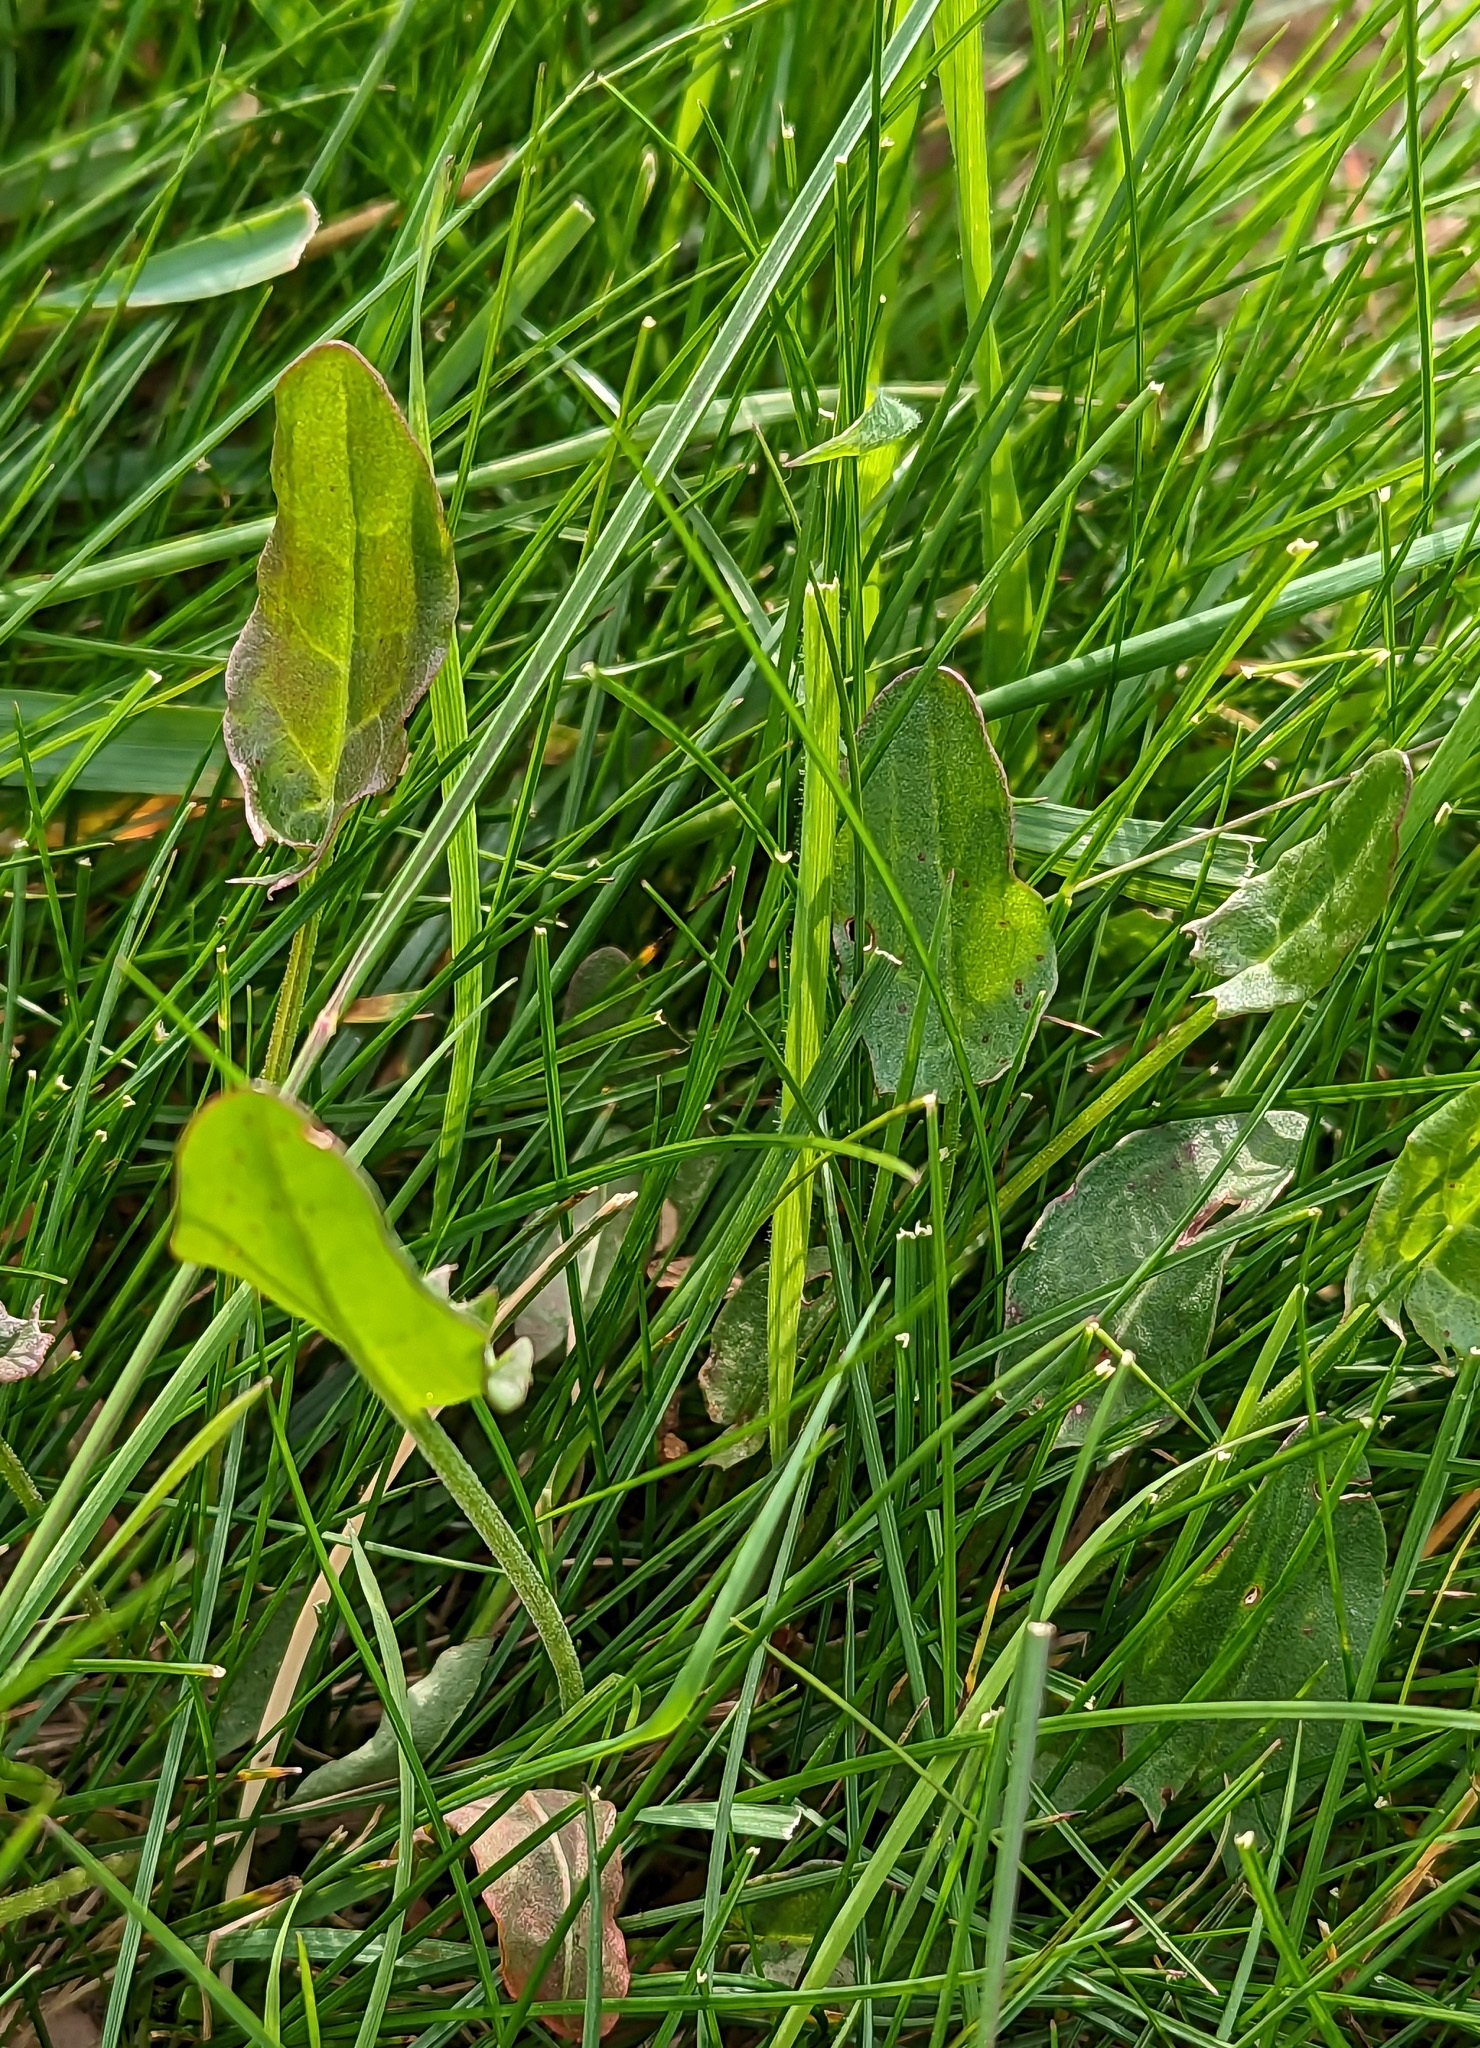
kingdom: Plantae
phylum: Tracheophyta
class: Magnoliopsida
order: Caryophyllales
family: Polygonaceae
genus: Rumex
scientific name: Rumex acetosa
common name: Garden sorrel
